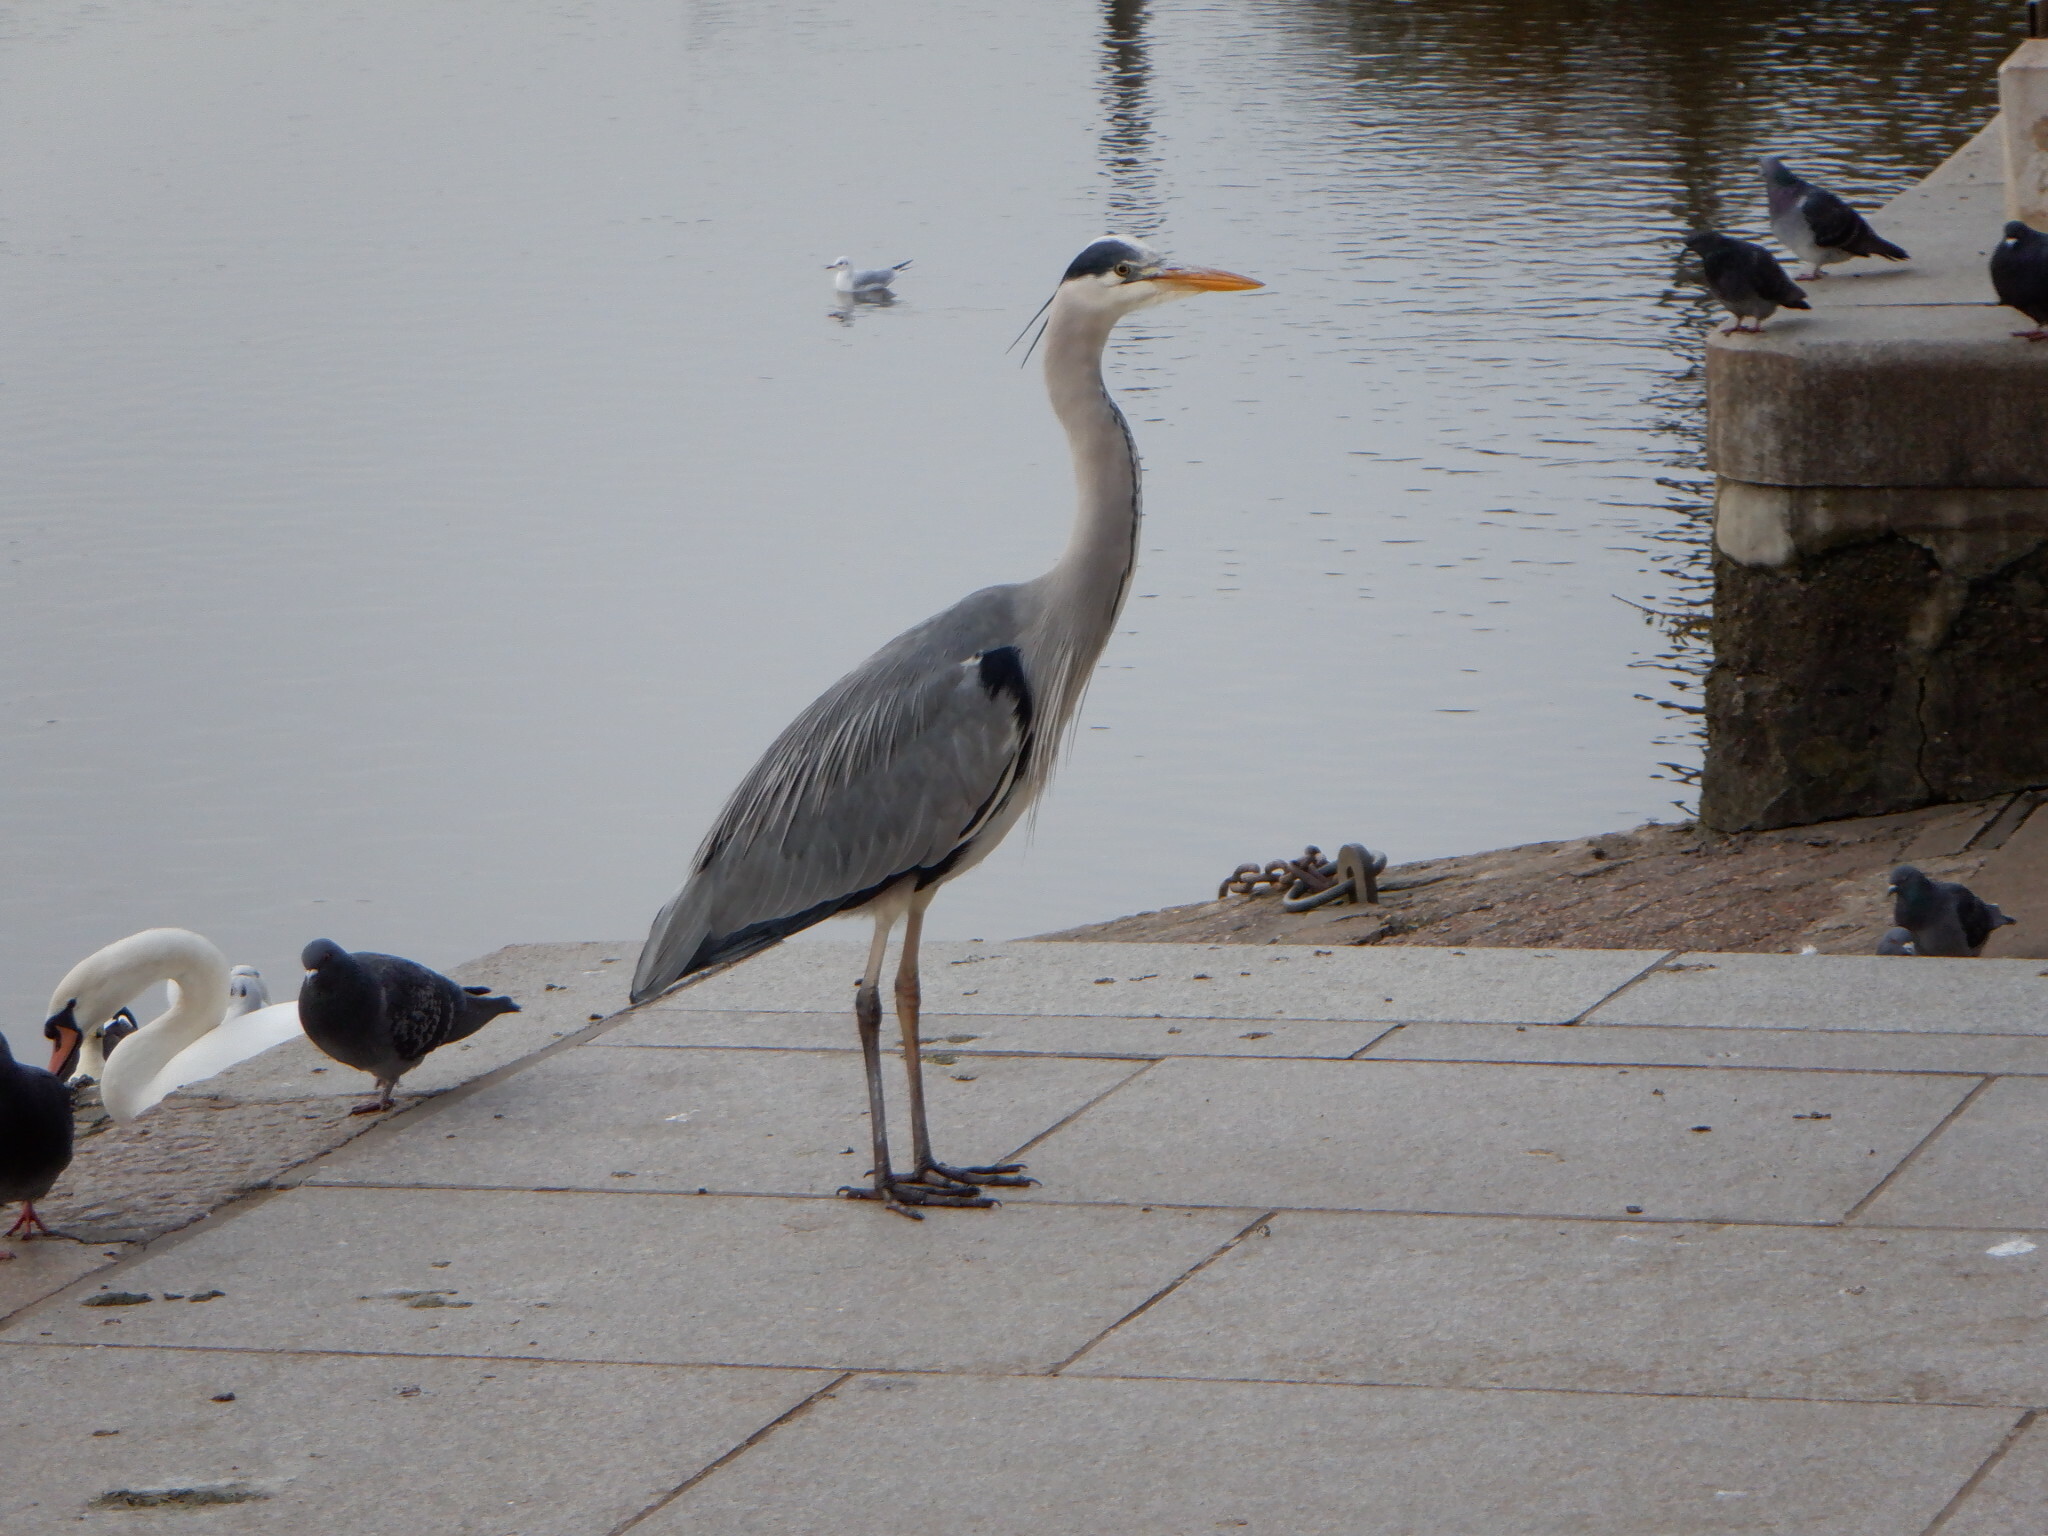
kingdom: Animalia
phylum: Chordata
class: Aves
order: Pelecaniformes
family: Ardeidae
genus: Ardea
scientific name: Ardea cinerea
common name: Grey heron
